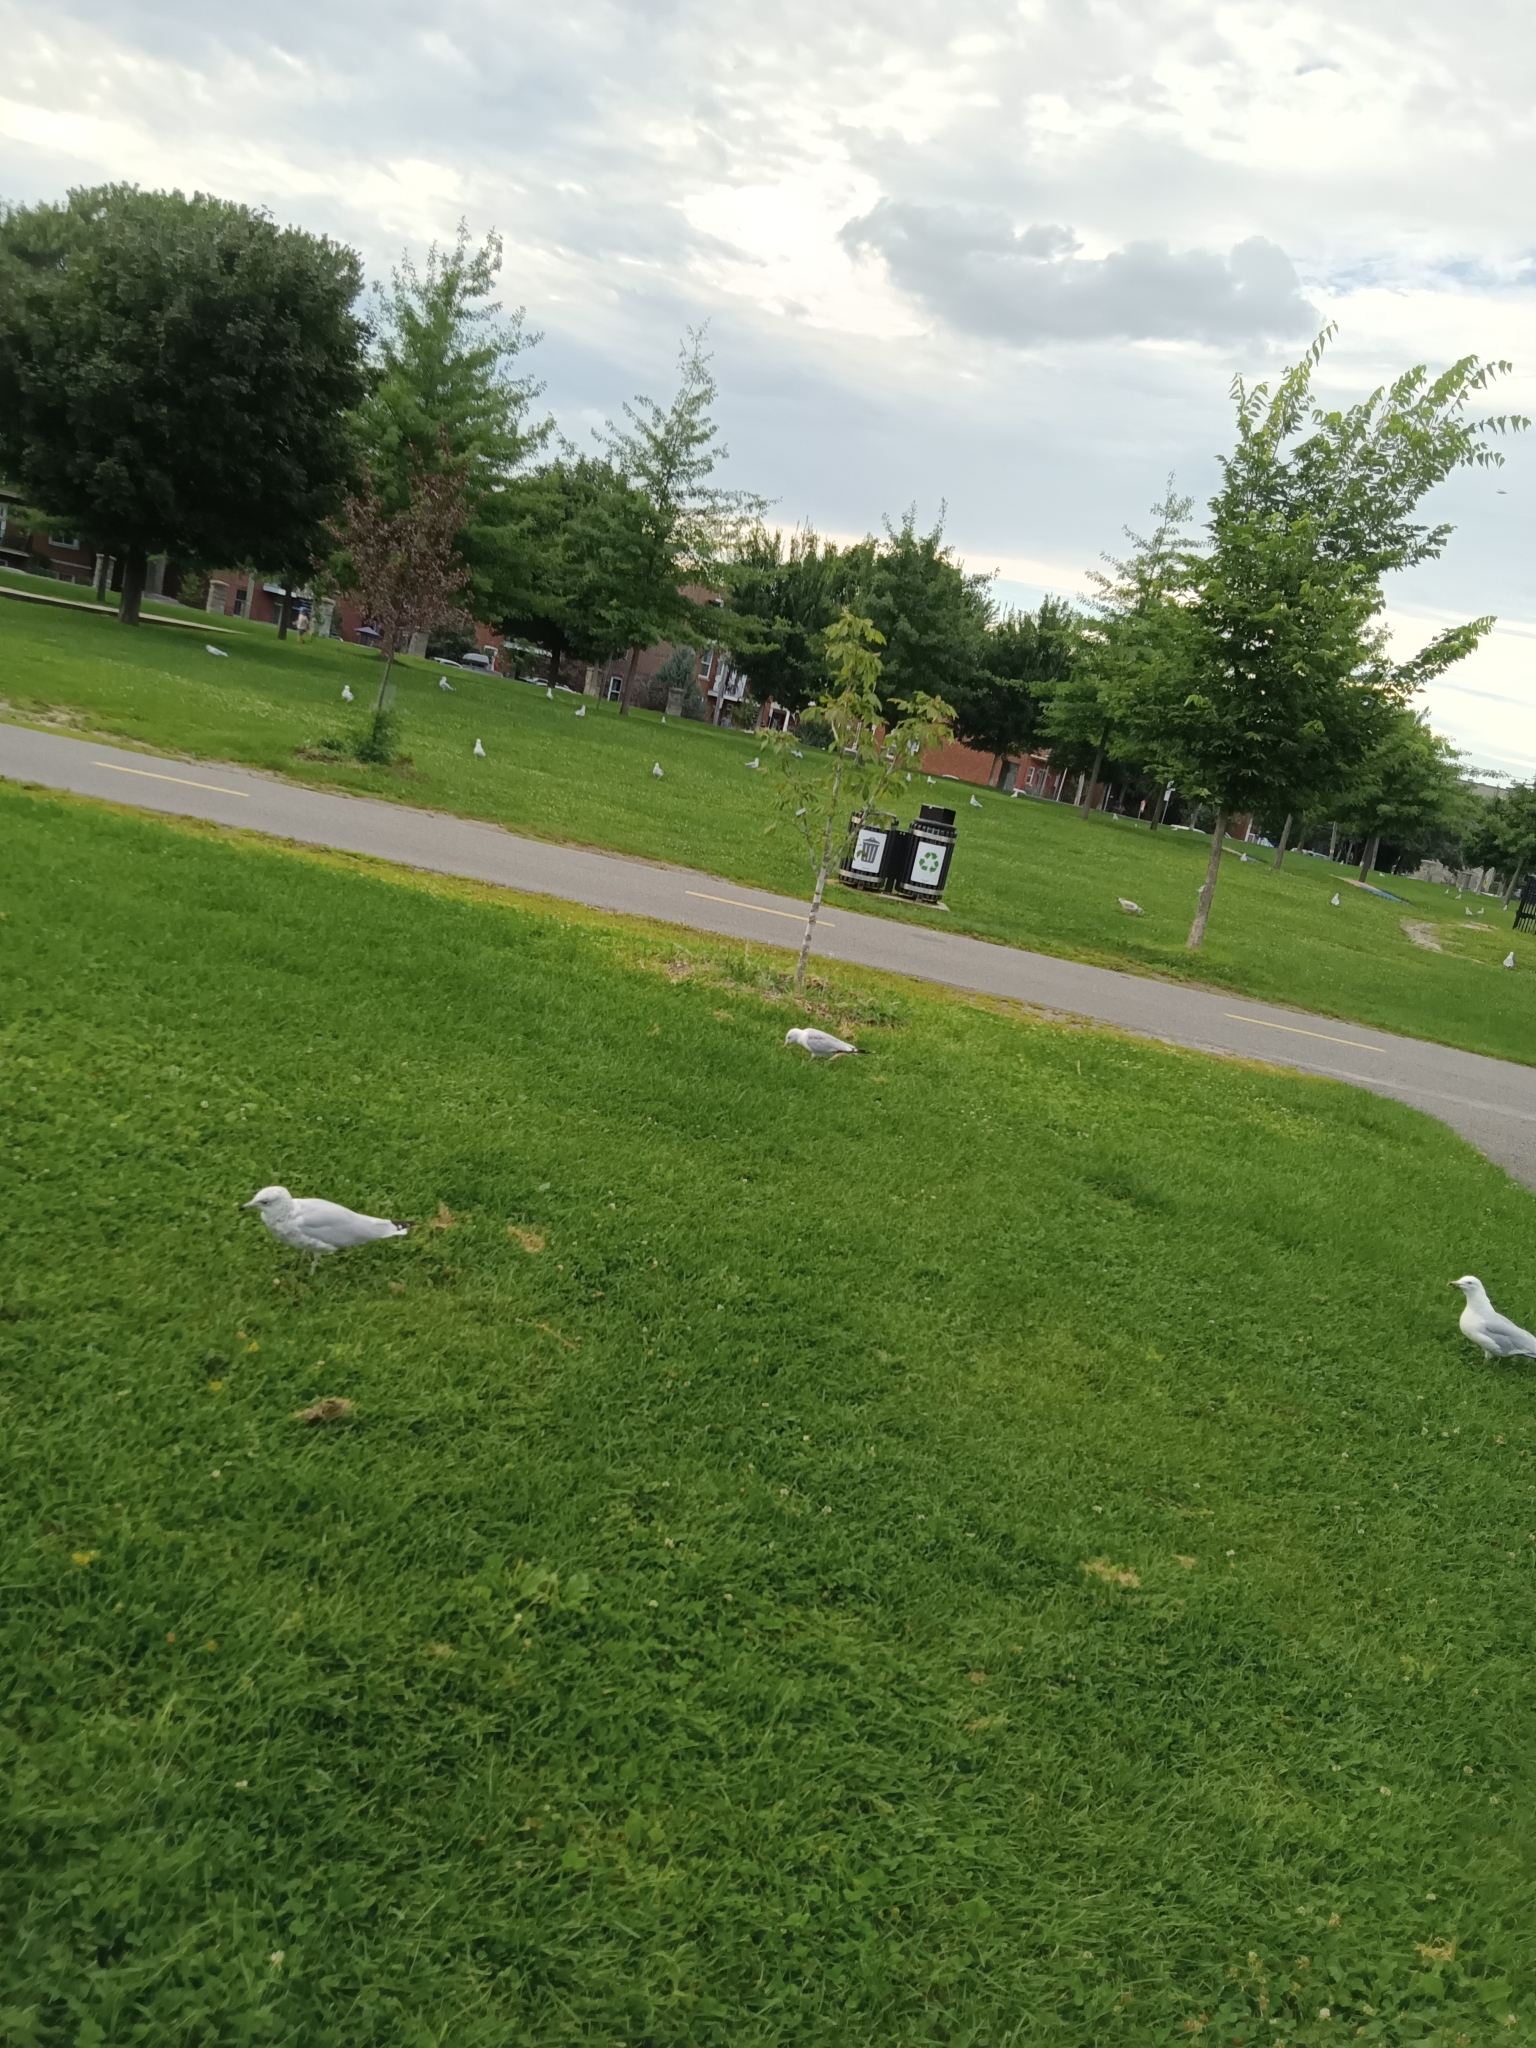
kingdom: Animalia
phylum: Chordata
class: Aves
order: Charadriiformes
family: Laridae
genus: Larus
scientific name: Larus delawarensis
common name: Ring-billed gull
